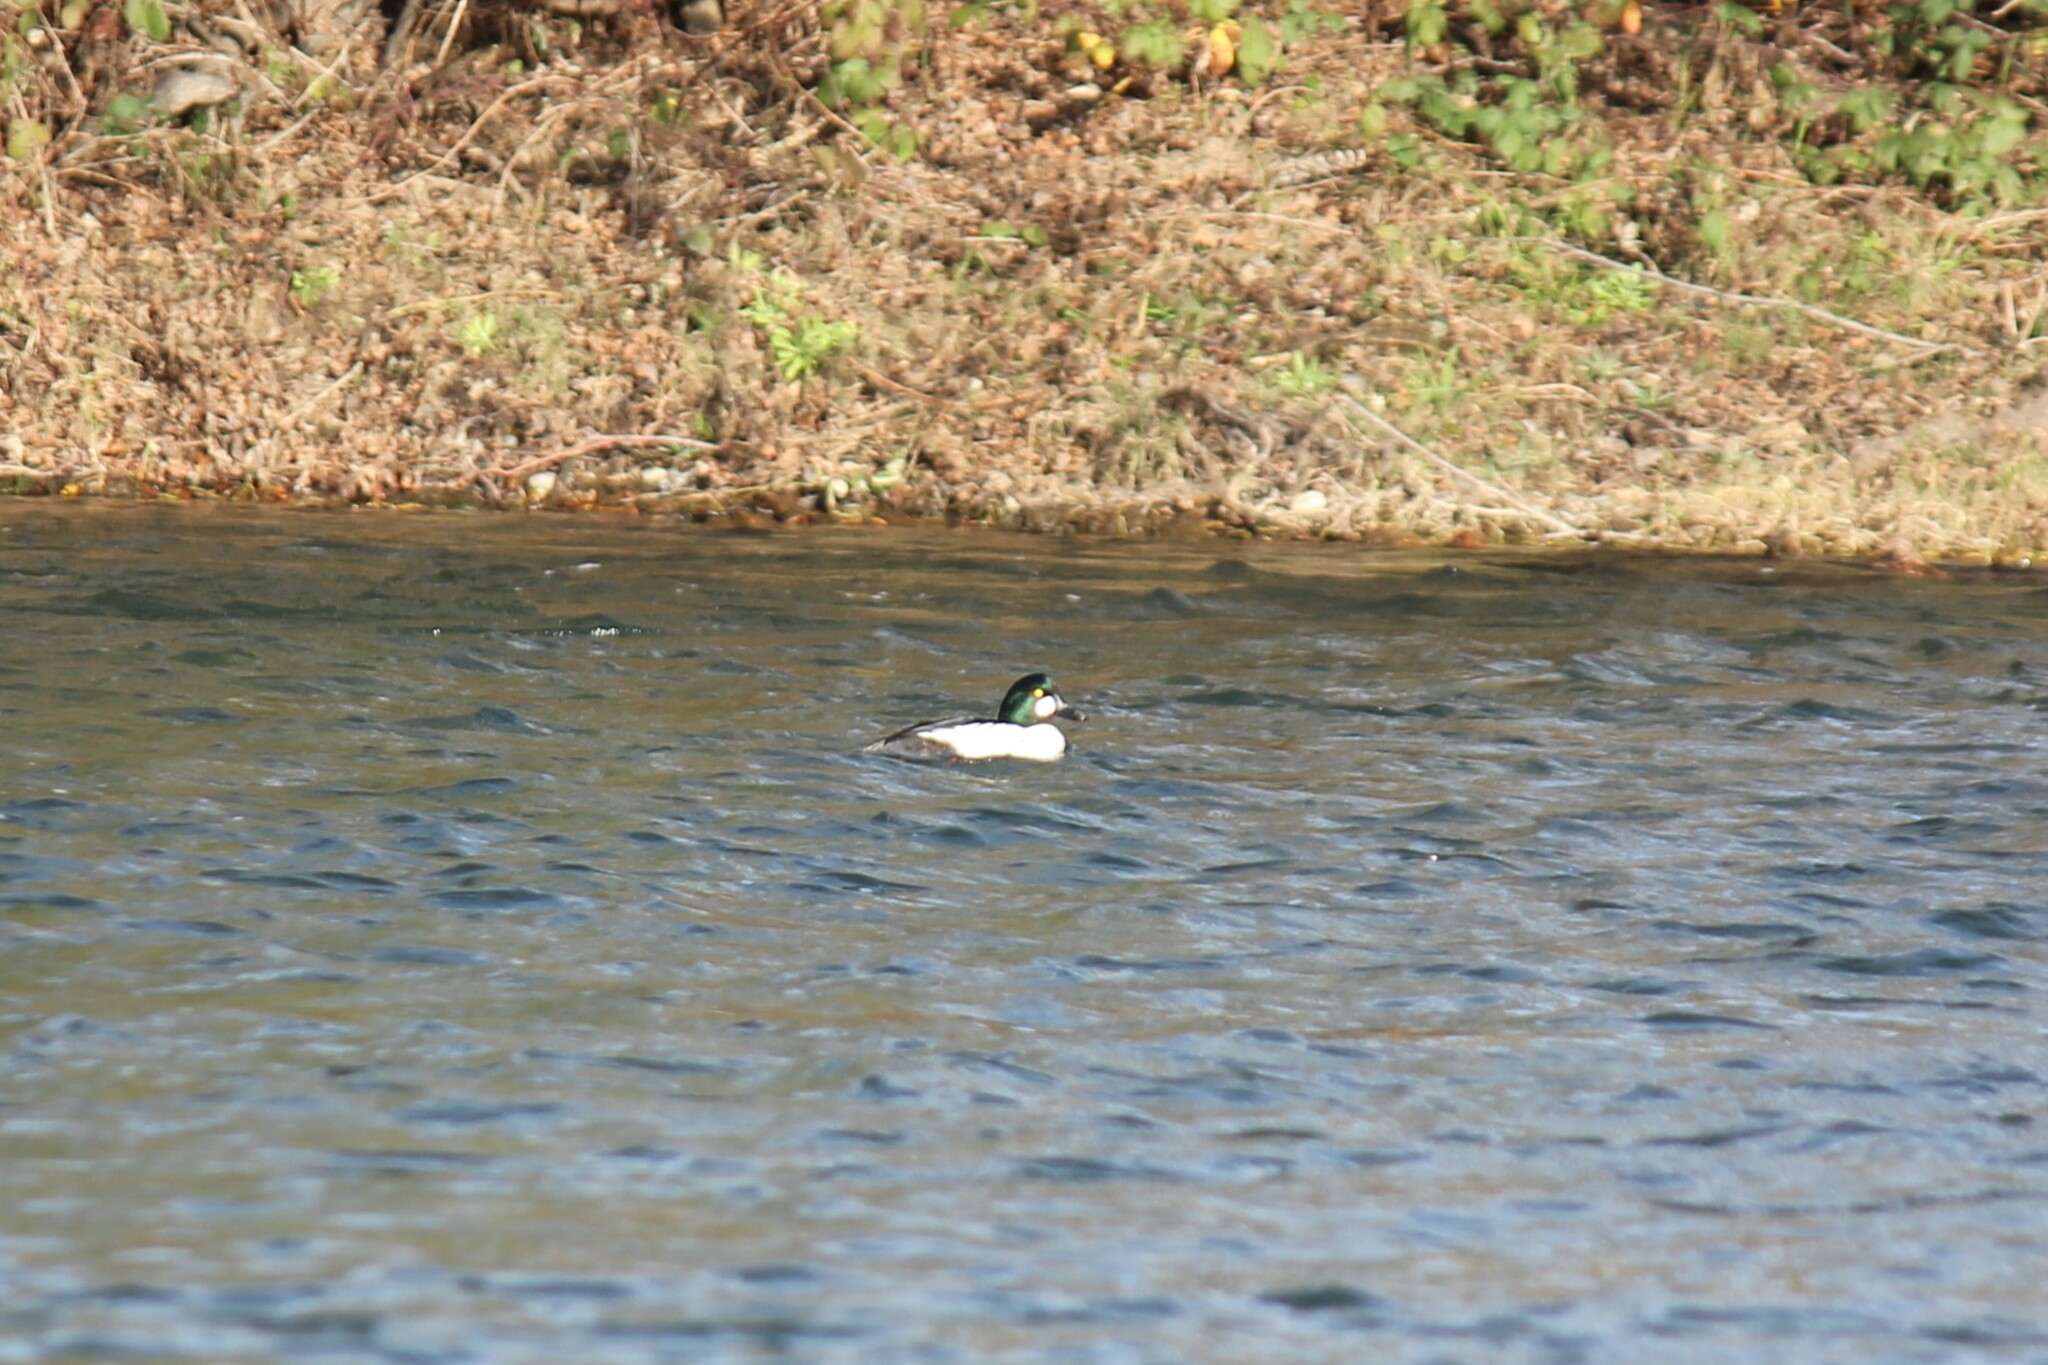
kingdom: Animalia
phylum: Chordata
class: Aves
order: Anseriformes
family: Anatidae
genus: Bucephala
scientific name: Bucephala clangula
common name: Common goldeneye
